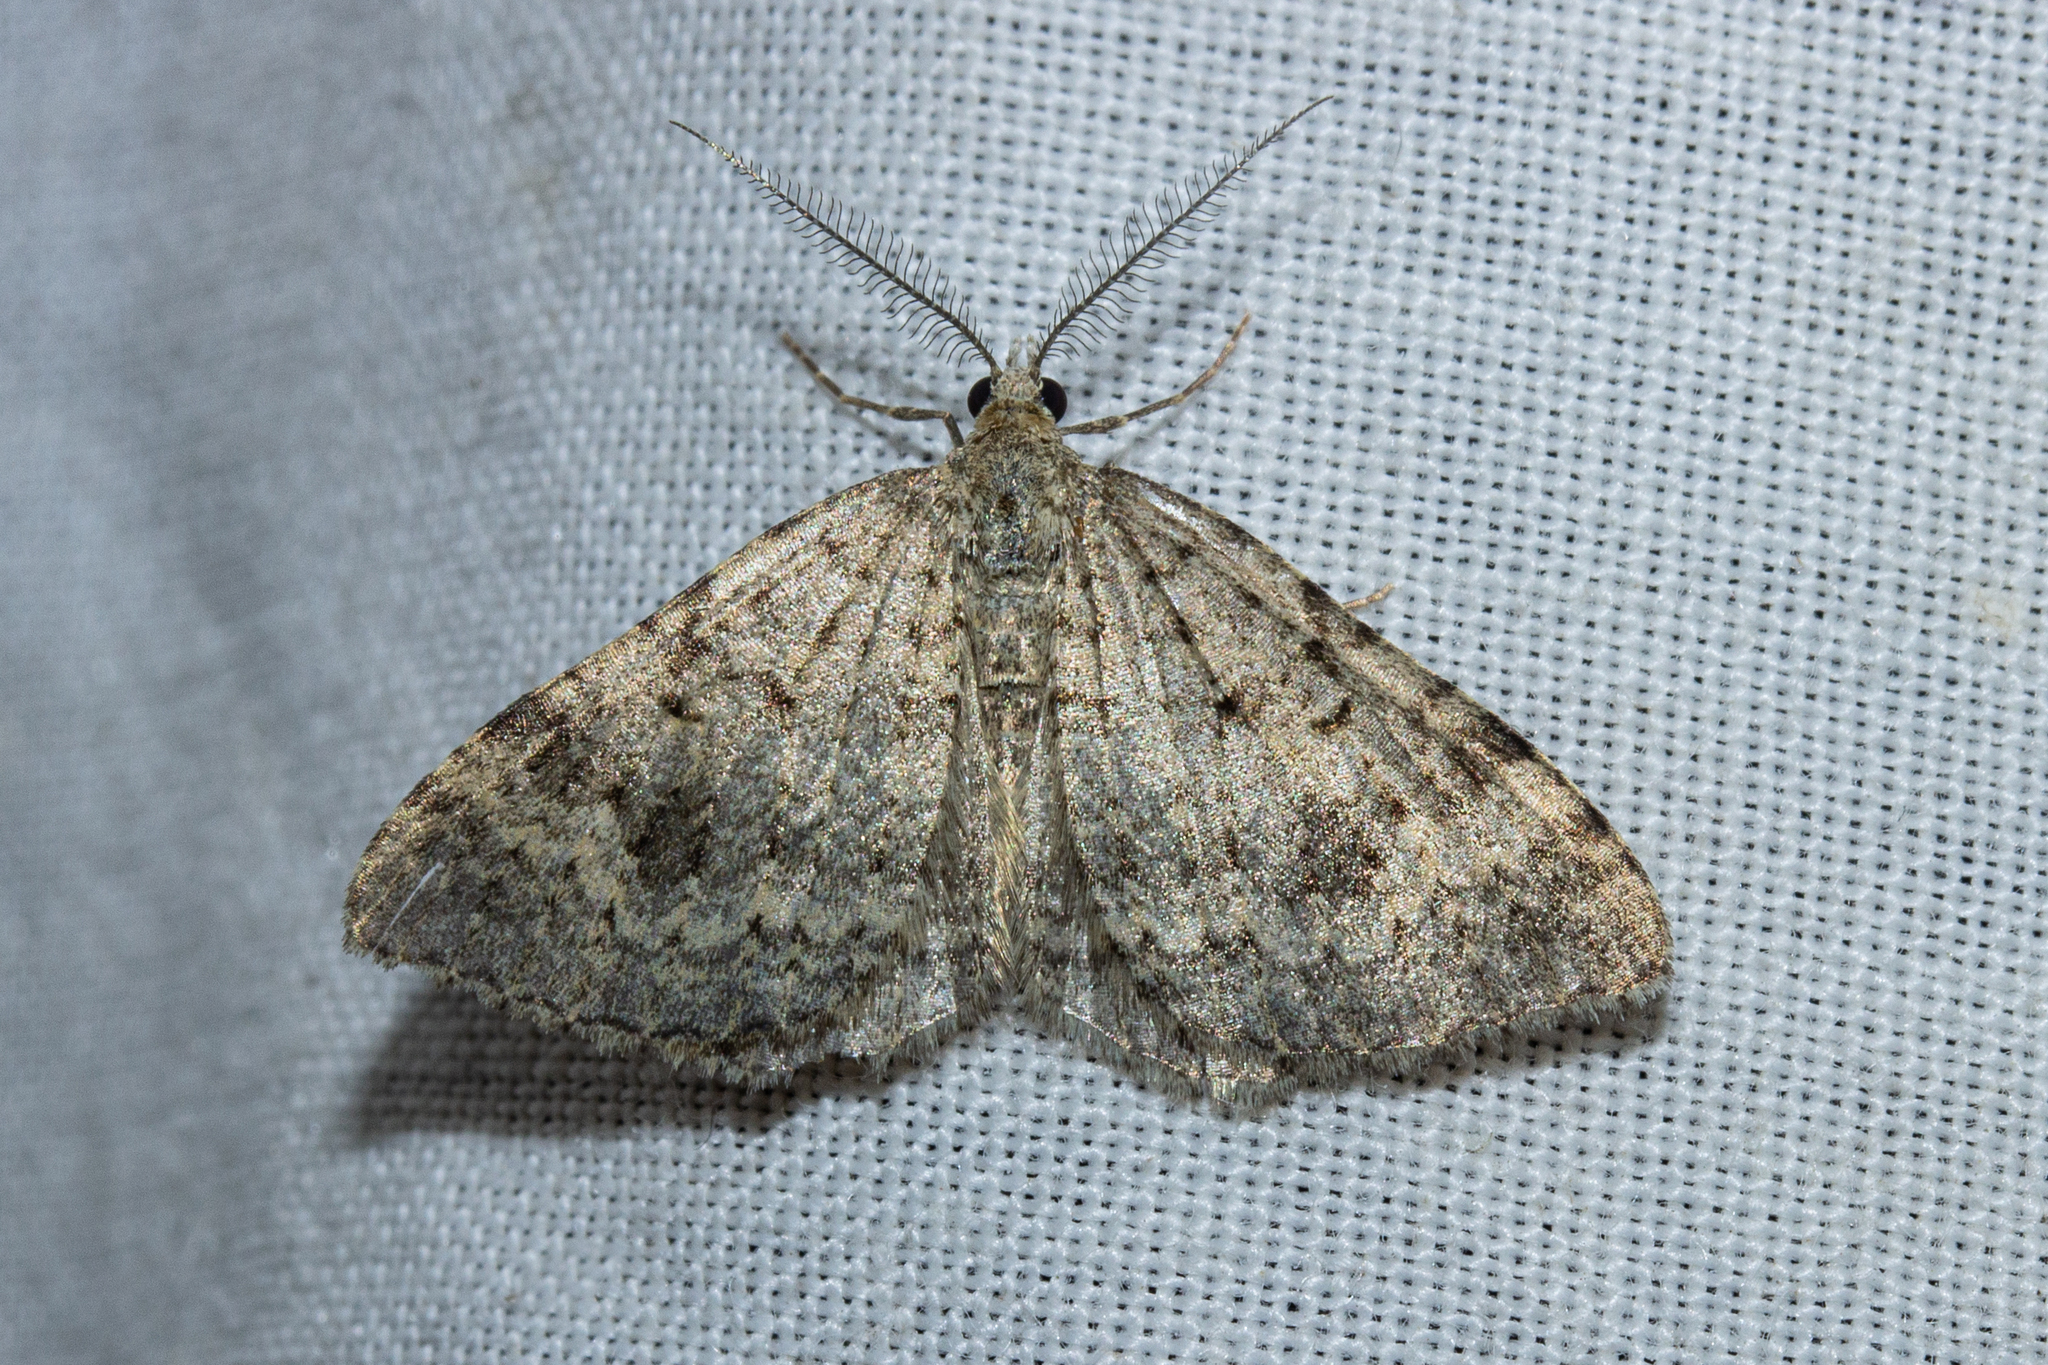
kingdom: Animalia
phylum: Arthropoda
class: Insecta
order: Lepidoptera
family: Geometridae
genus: Helastia
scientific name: Helastia corcularia
